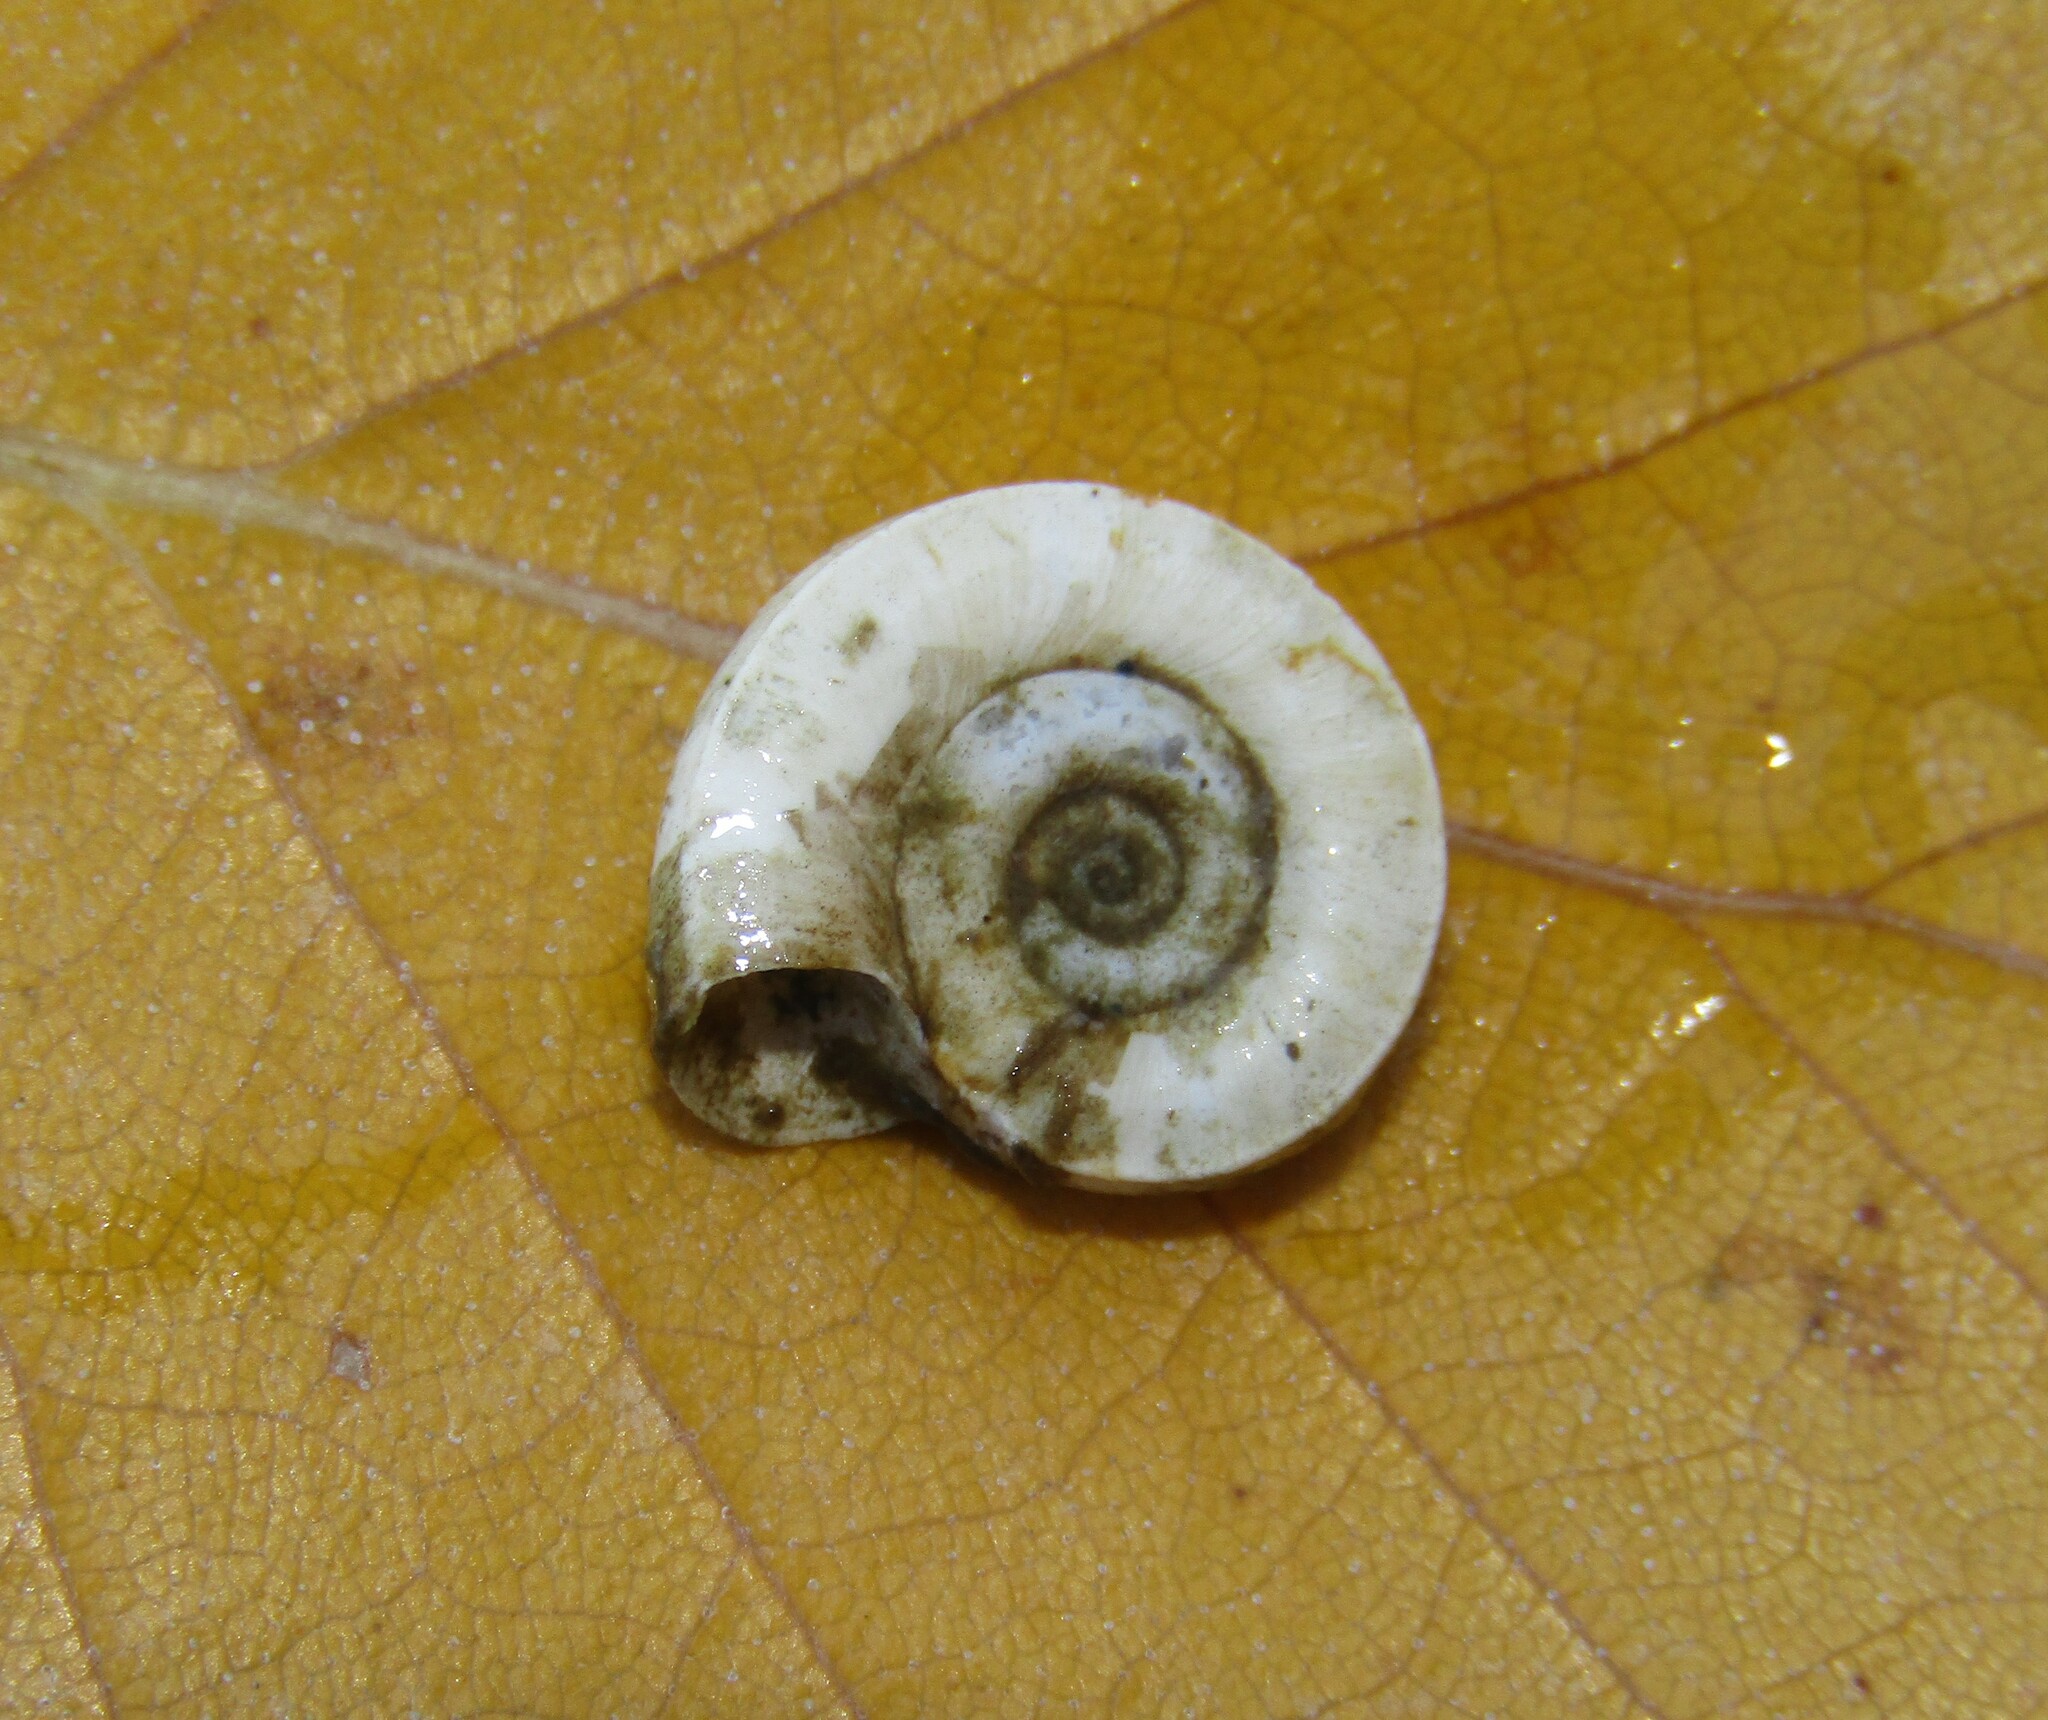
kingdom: Animalia
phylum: Mollusca
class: Gastropoda
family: Planorbidae
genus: Planorbis
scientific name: Planorbis planorbis
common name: Margined ramshorn
